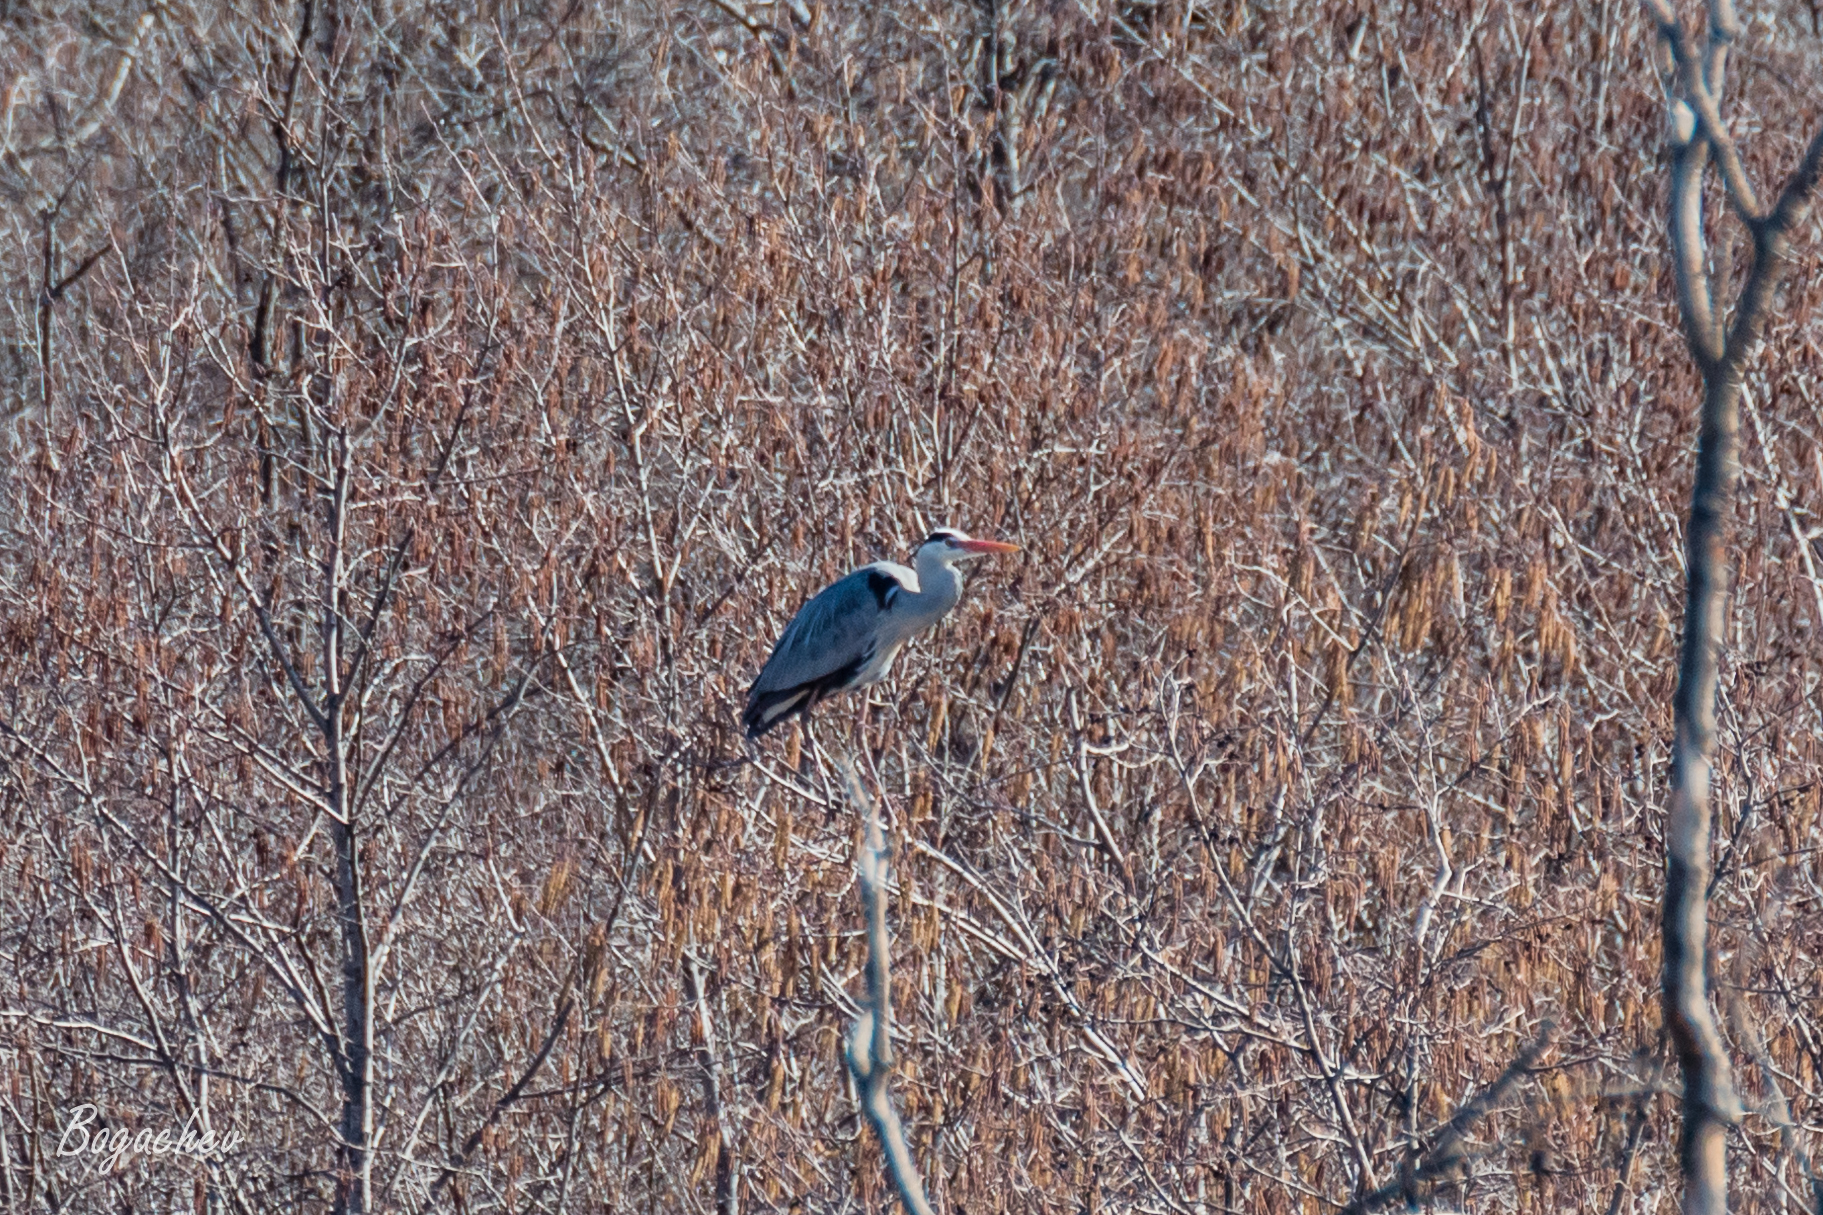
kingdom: Animalia
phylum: Chordata
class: Aves
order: Pelecaniformes
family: Ardeidae
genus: Ardea
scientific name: Ardea cinerea
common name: Grey heron
